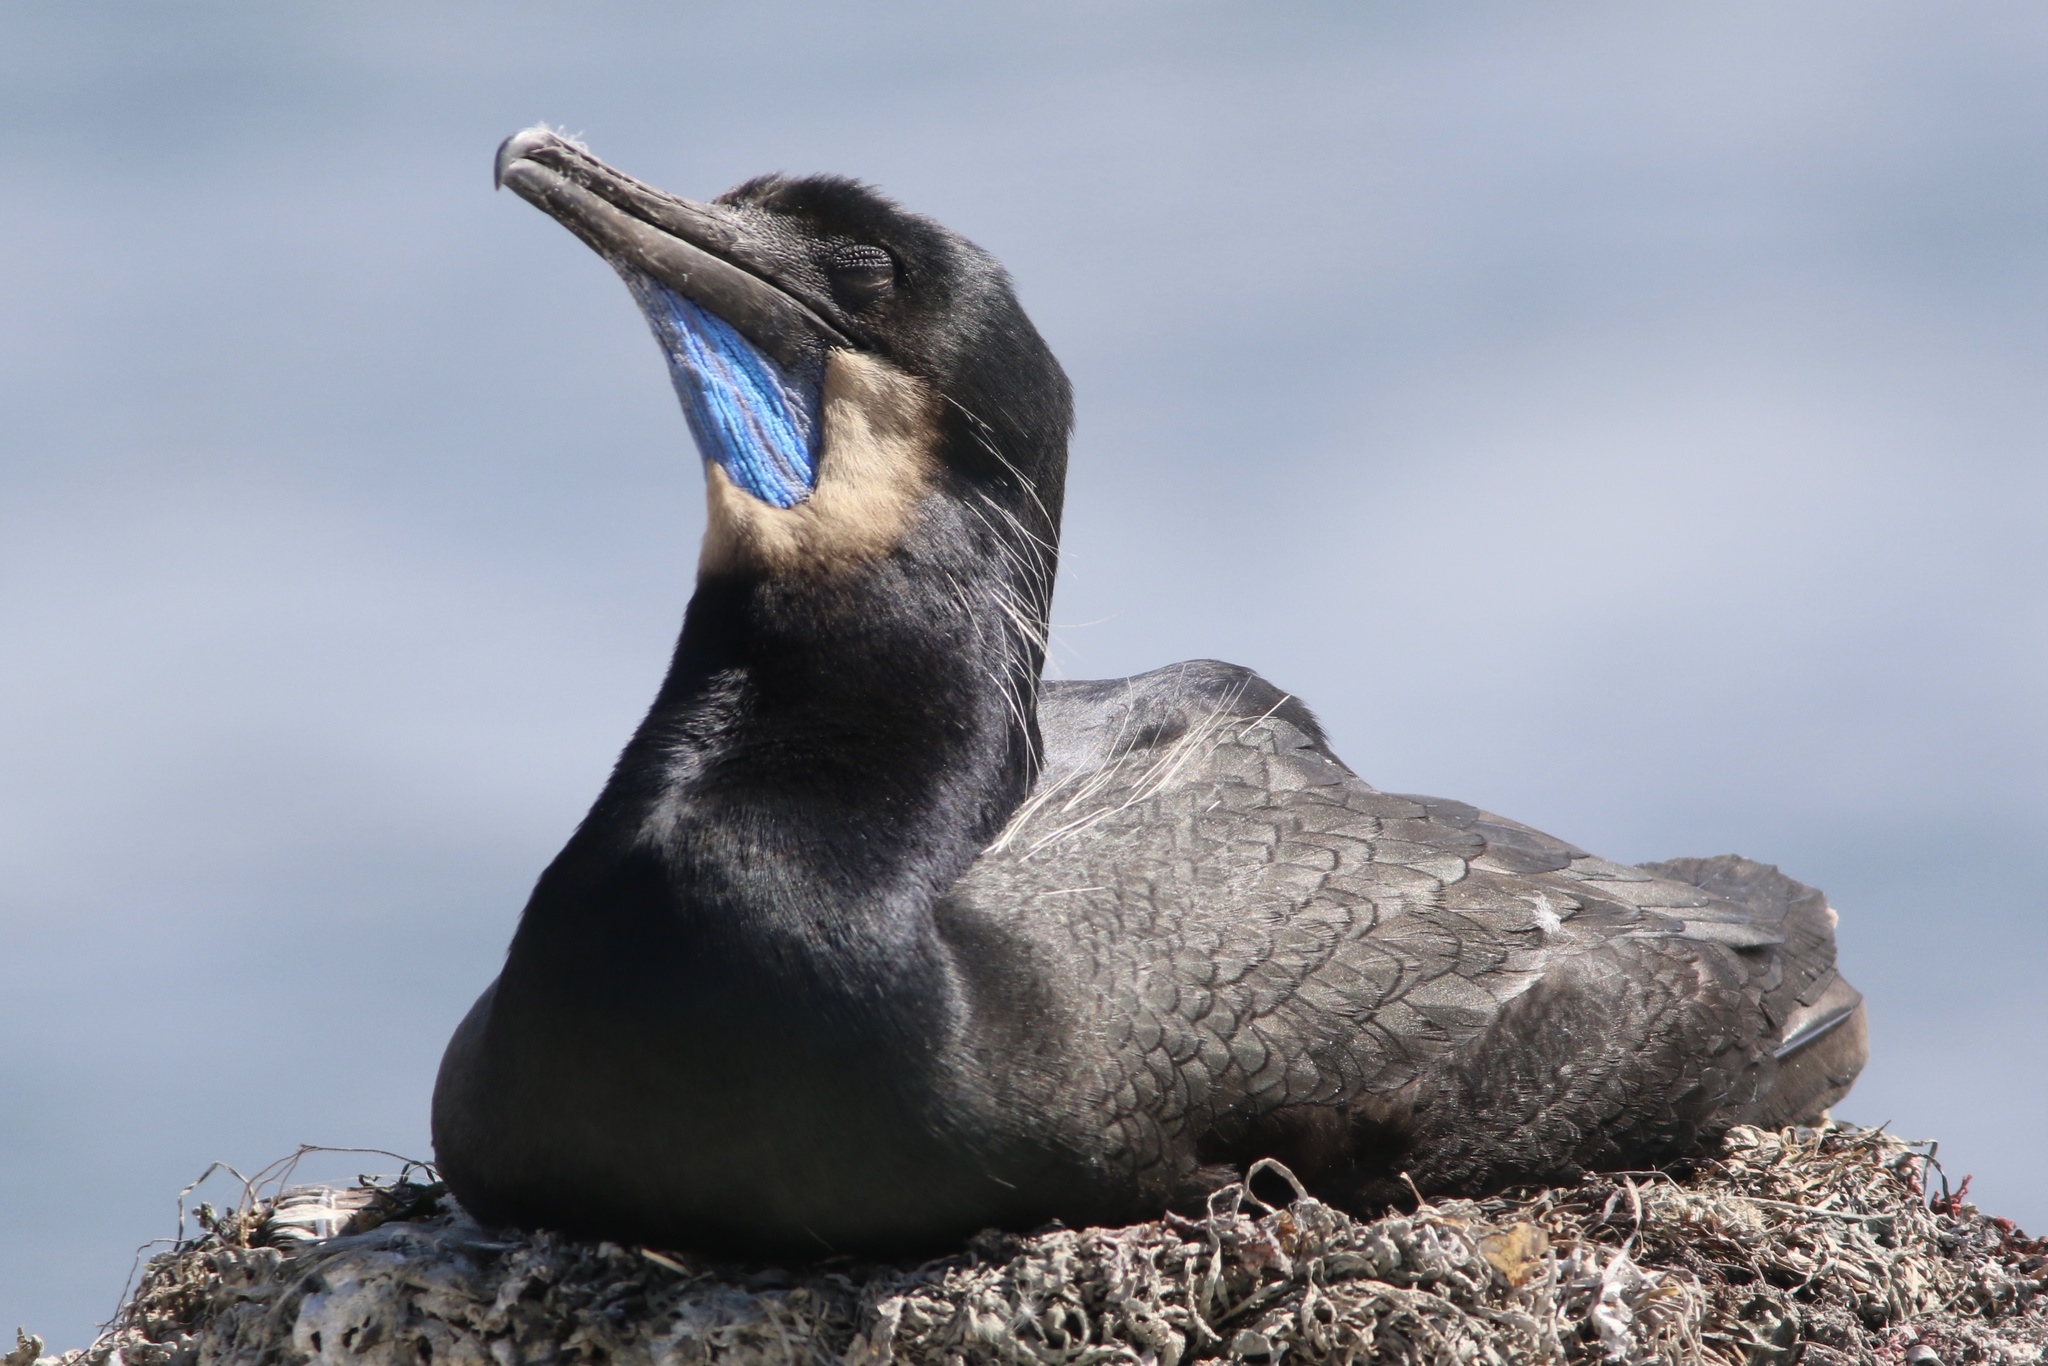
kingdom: Animalia
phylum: Chordata
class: Aves
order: Suliformes
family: Phalacrocoracidae
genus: Urile
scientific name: Urile penicillatus
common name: Brandt's cormorant
